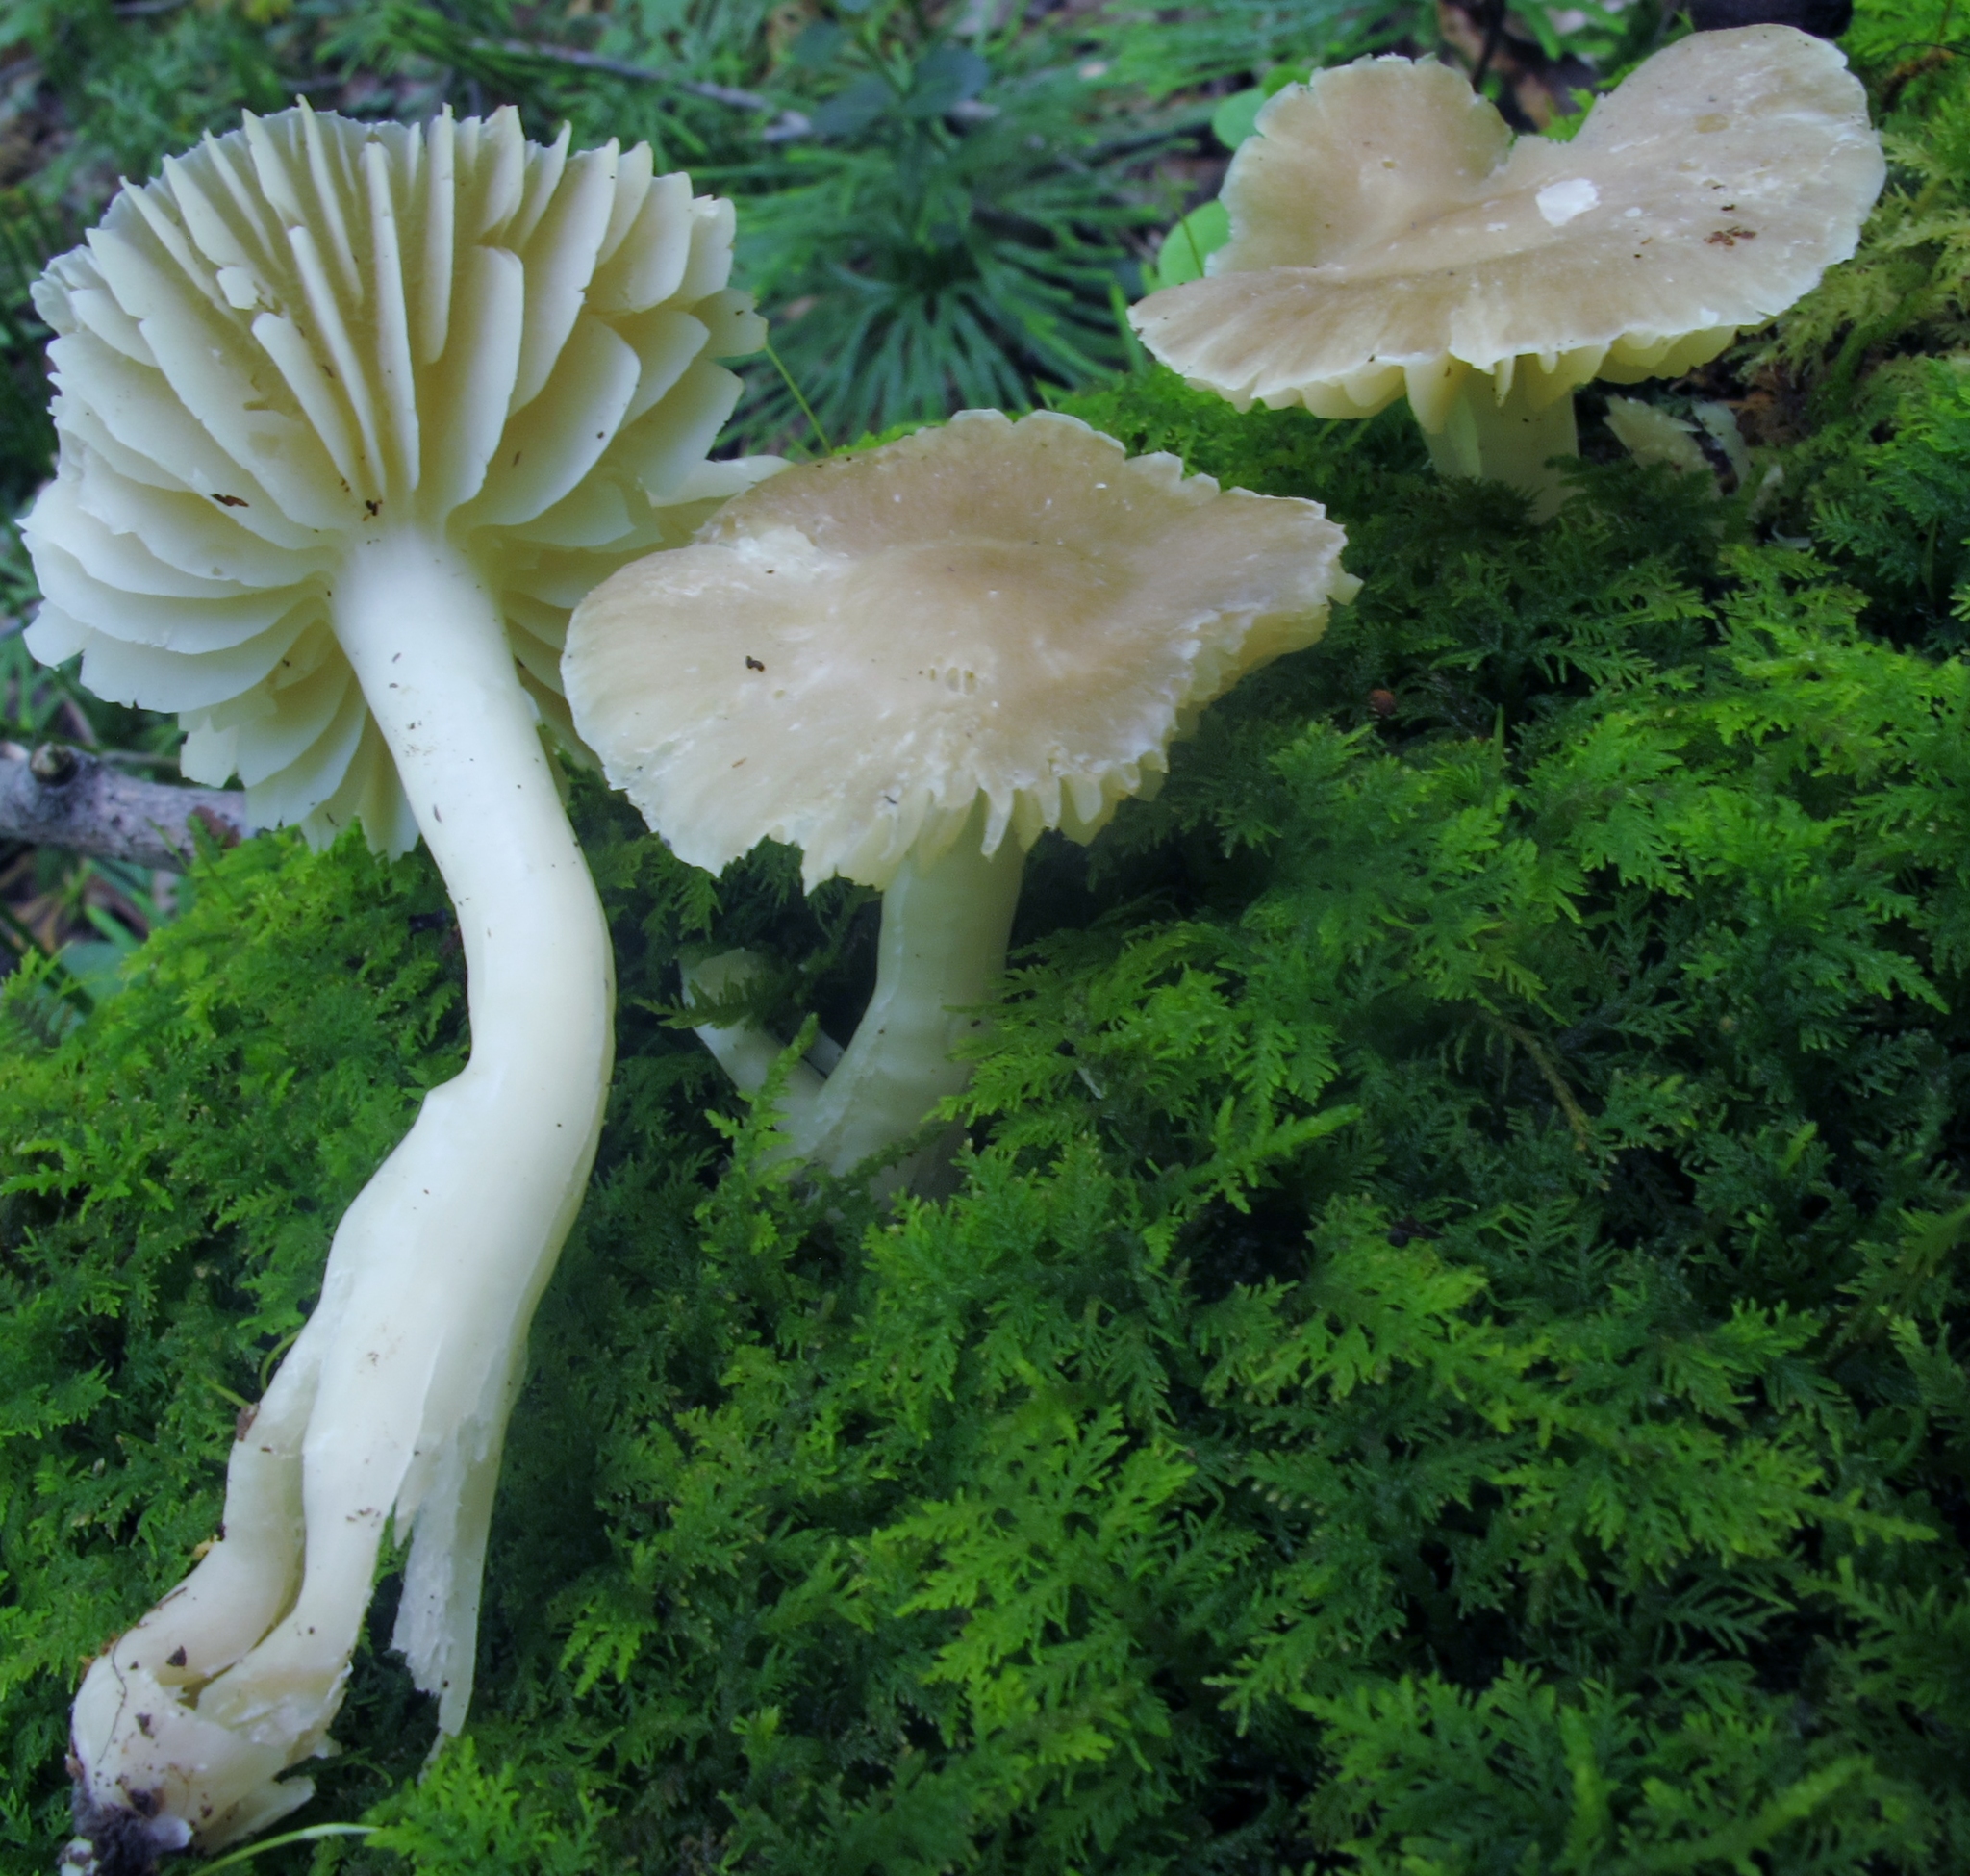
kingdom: Fungi
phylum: Basidiomycota
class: Agaricomycetes
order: Agaricales
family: Hygrophoraceae
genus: Neohygrocybe
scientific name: Neohygrocybe nitrata
